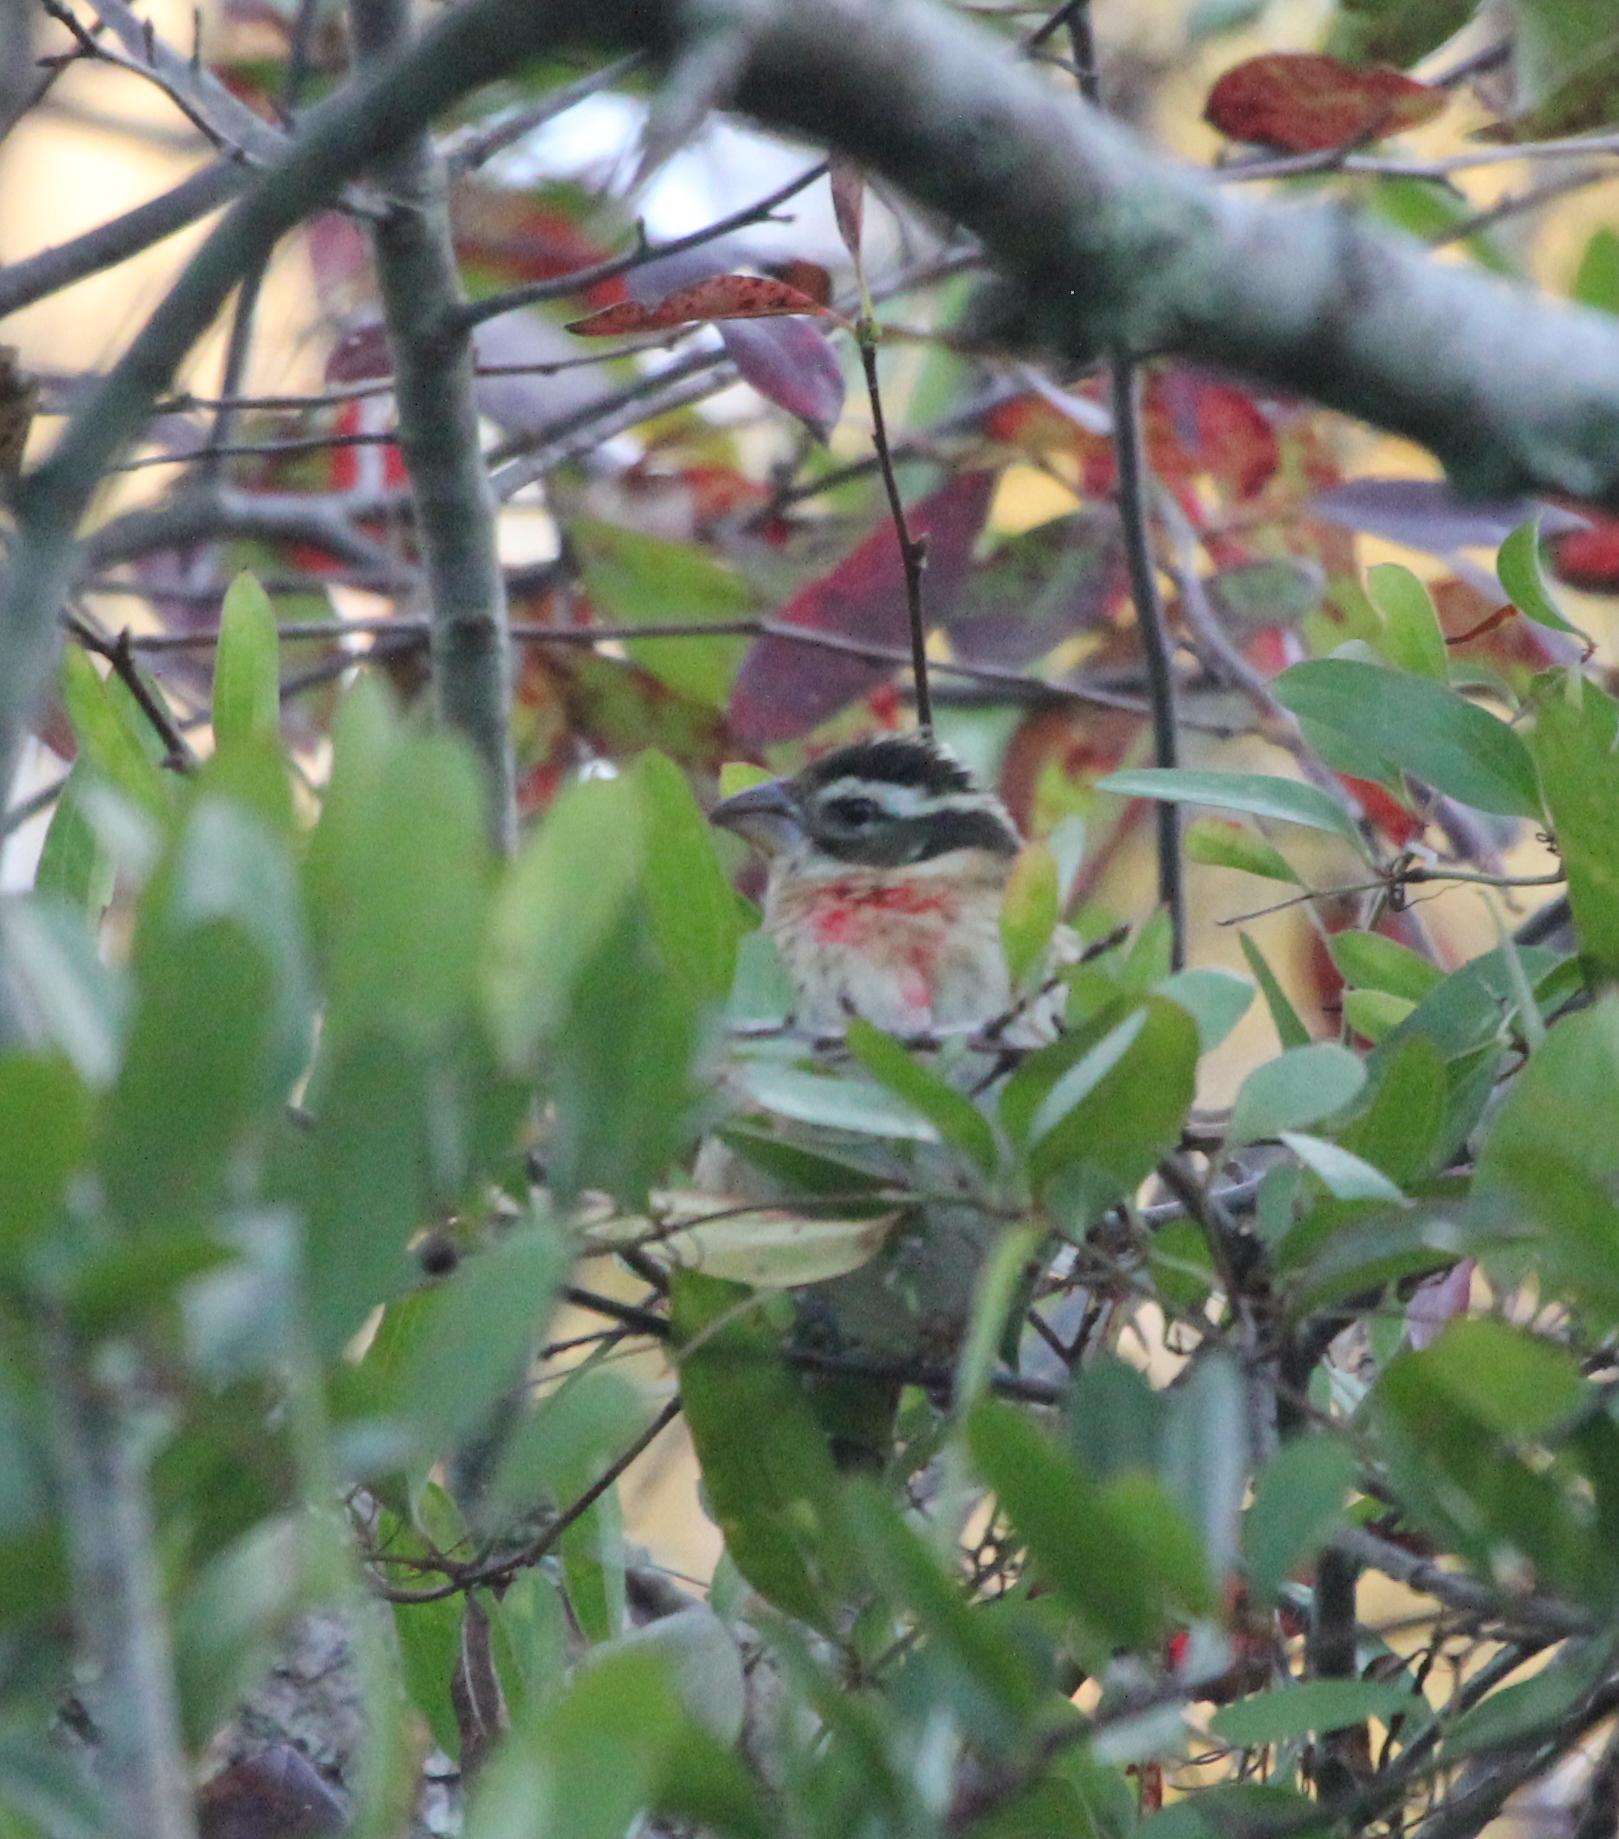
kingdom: Animalia
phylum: Chordata
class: Aves
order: Passeriformes
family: Cardinalidae
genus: Pheucticus
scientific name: Pheucticus ludovicianus
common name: Rose-breasted grosbeak
